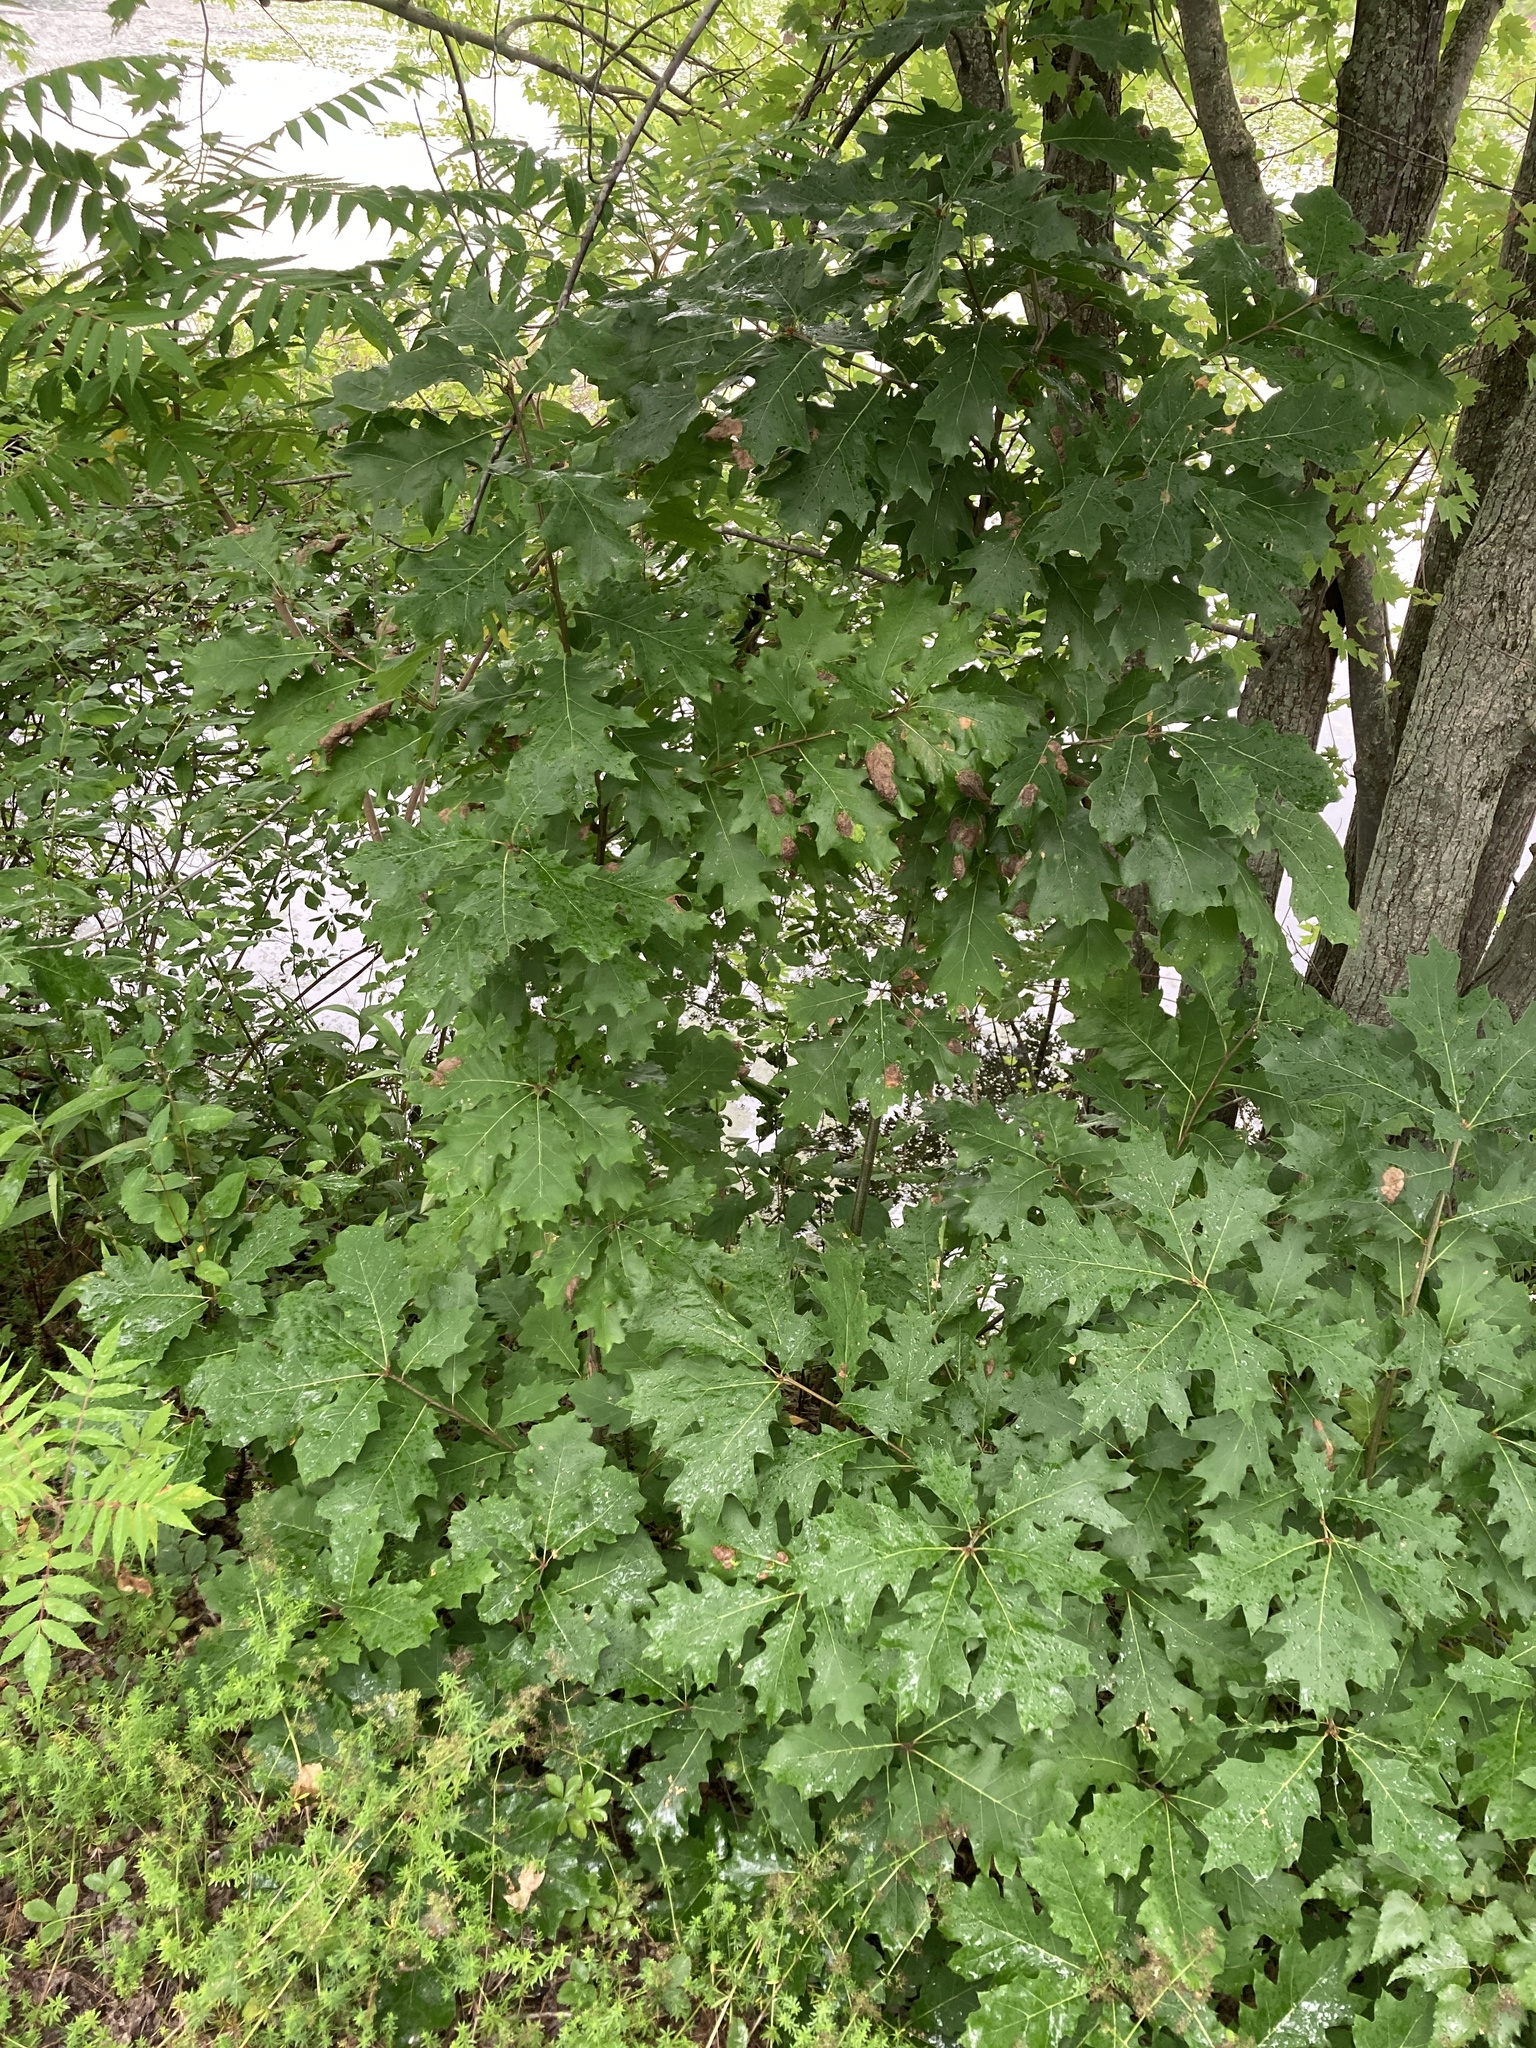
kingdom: Plantae
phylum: Tracheophyta
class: Magnoliopsida
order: Fagales
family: Fagaceae
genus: Quercus
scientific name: Quercus rubra
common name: Red oak
